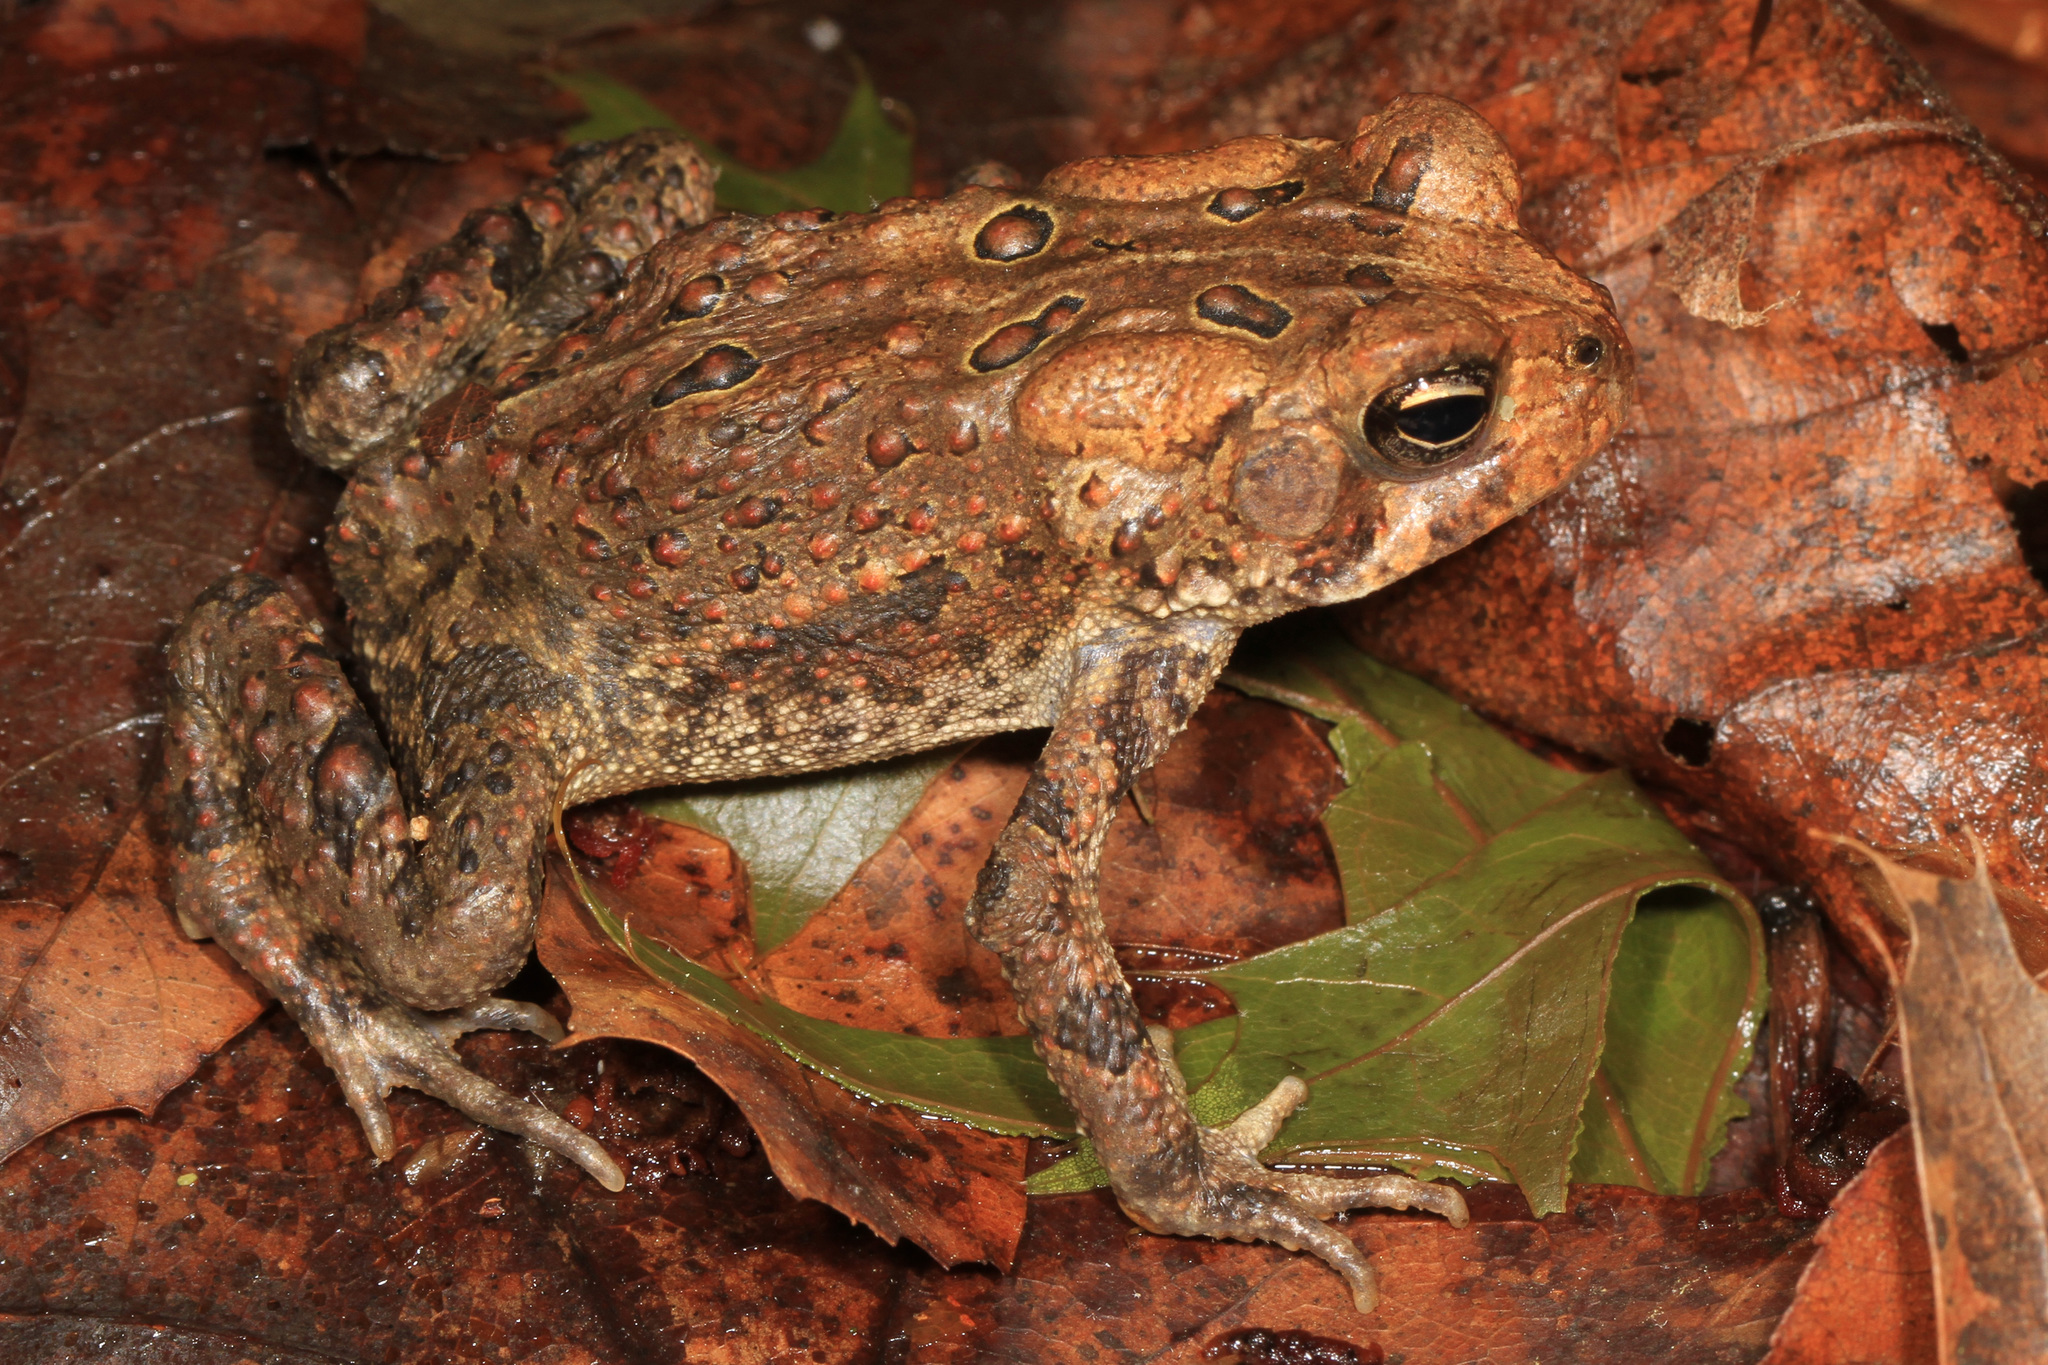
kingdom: Animalia
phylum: Chordata
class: Amphibia
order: Anura
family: Bufonidae
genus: Anaxyrus
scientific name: Anaxyrus americanus
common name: American toad
